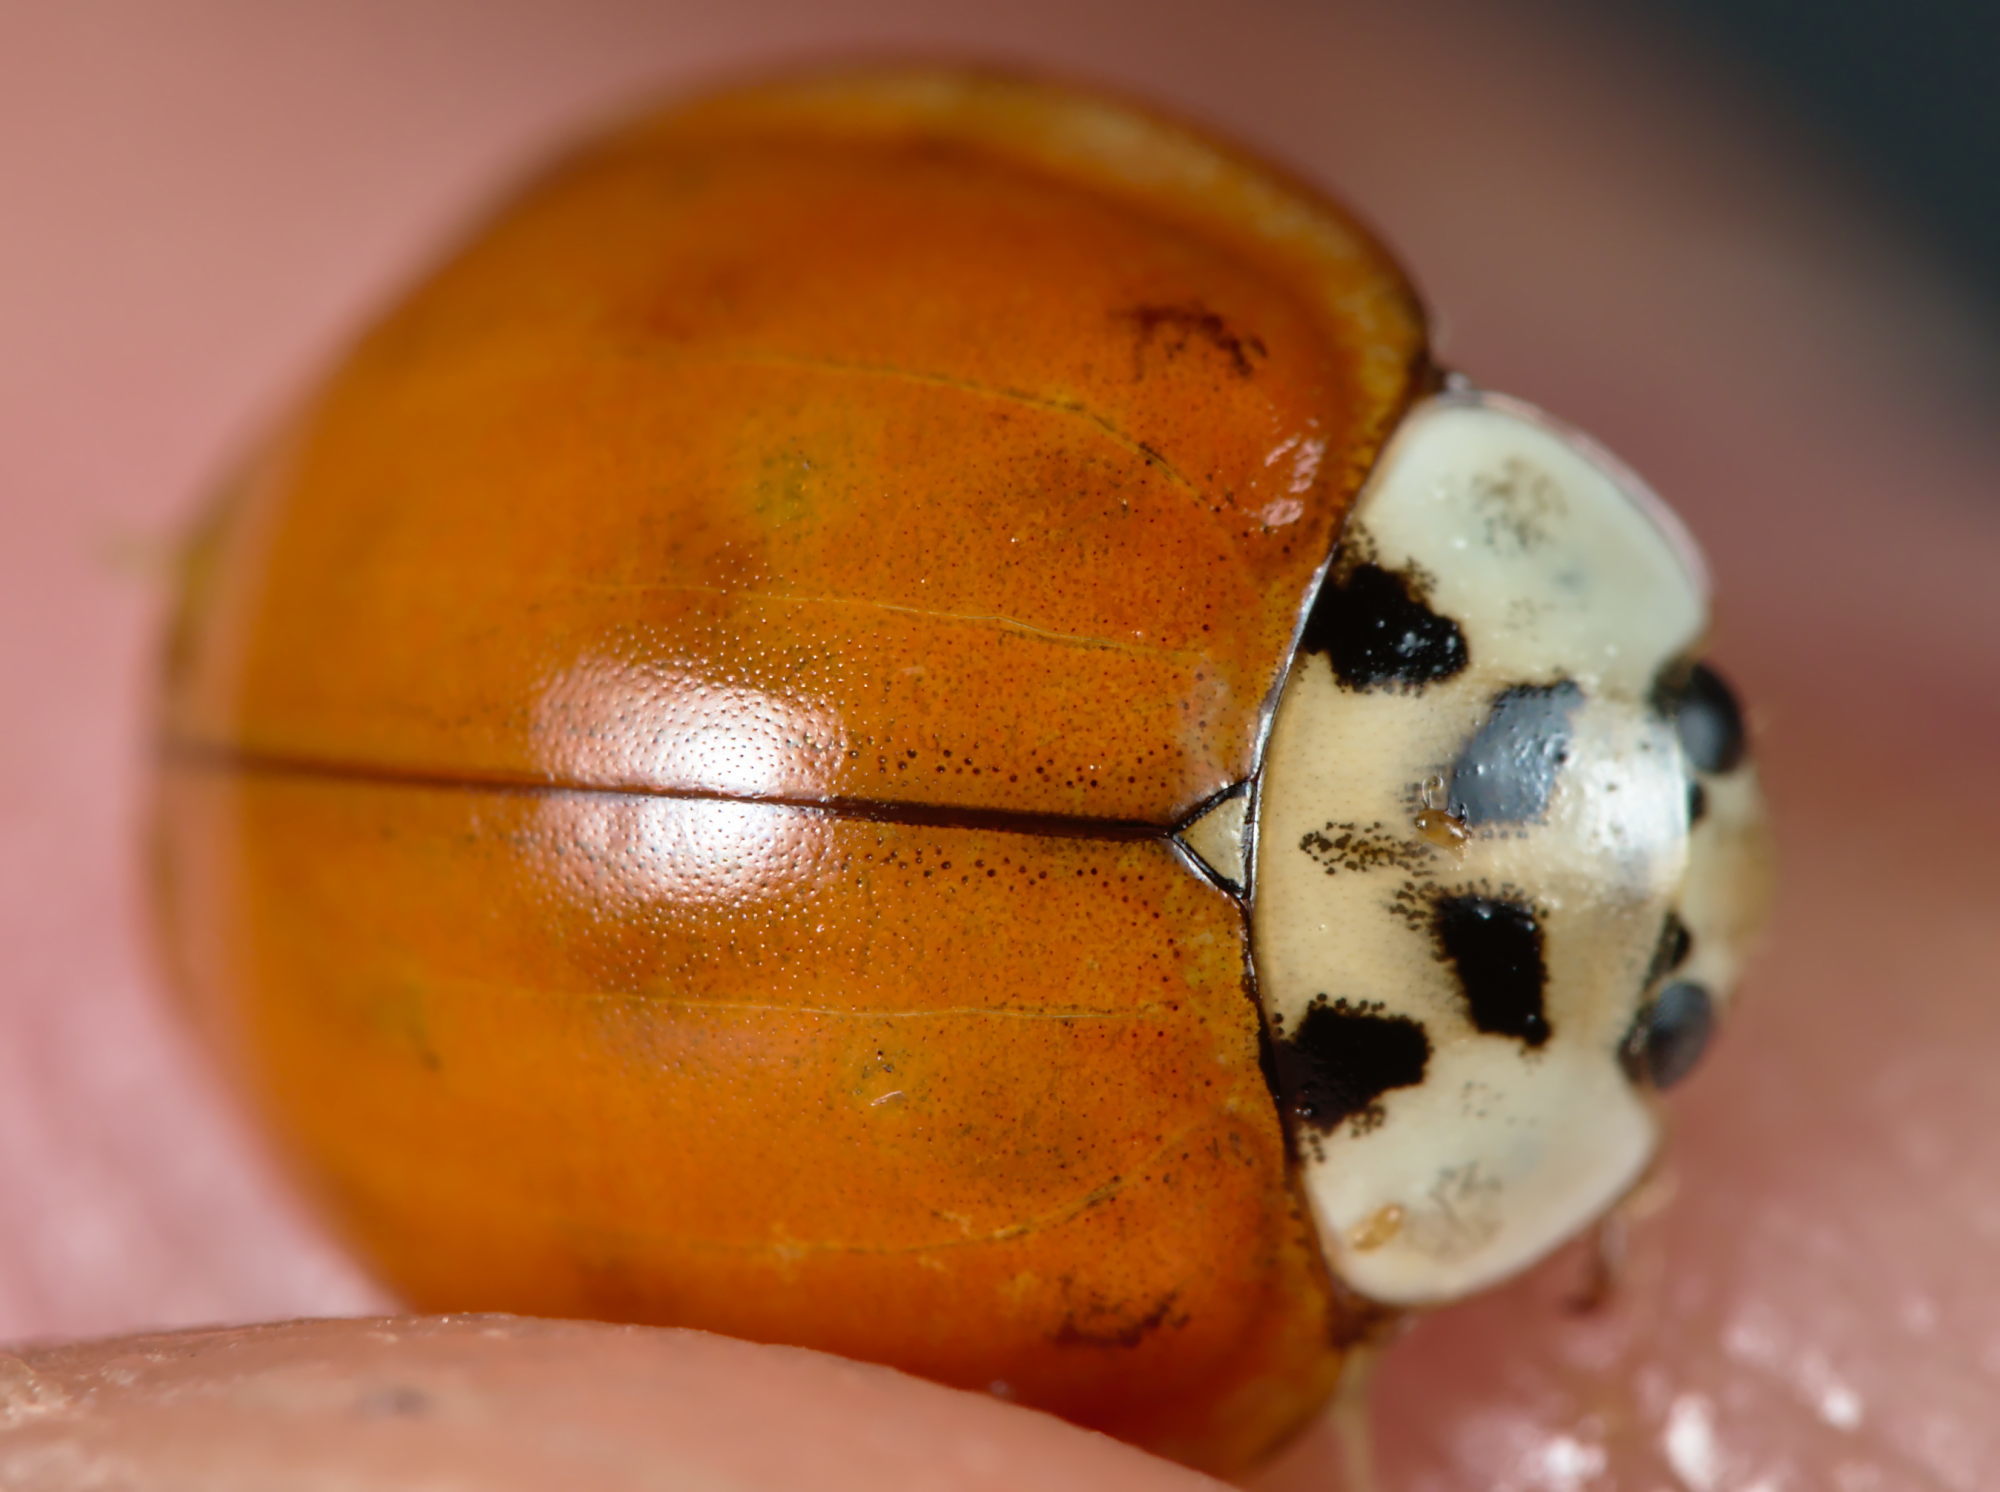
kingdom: Animalia
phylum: Arthropoda
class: Insecta
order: Coleoptera
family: Coccinellidae
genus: Harmonia
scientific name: Harmonia axyridis
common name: Harlequin ladybird
